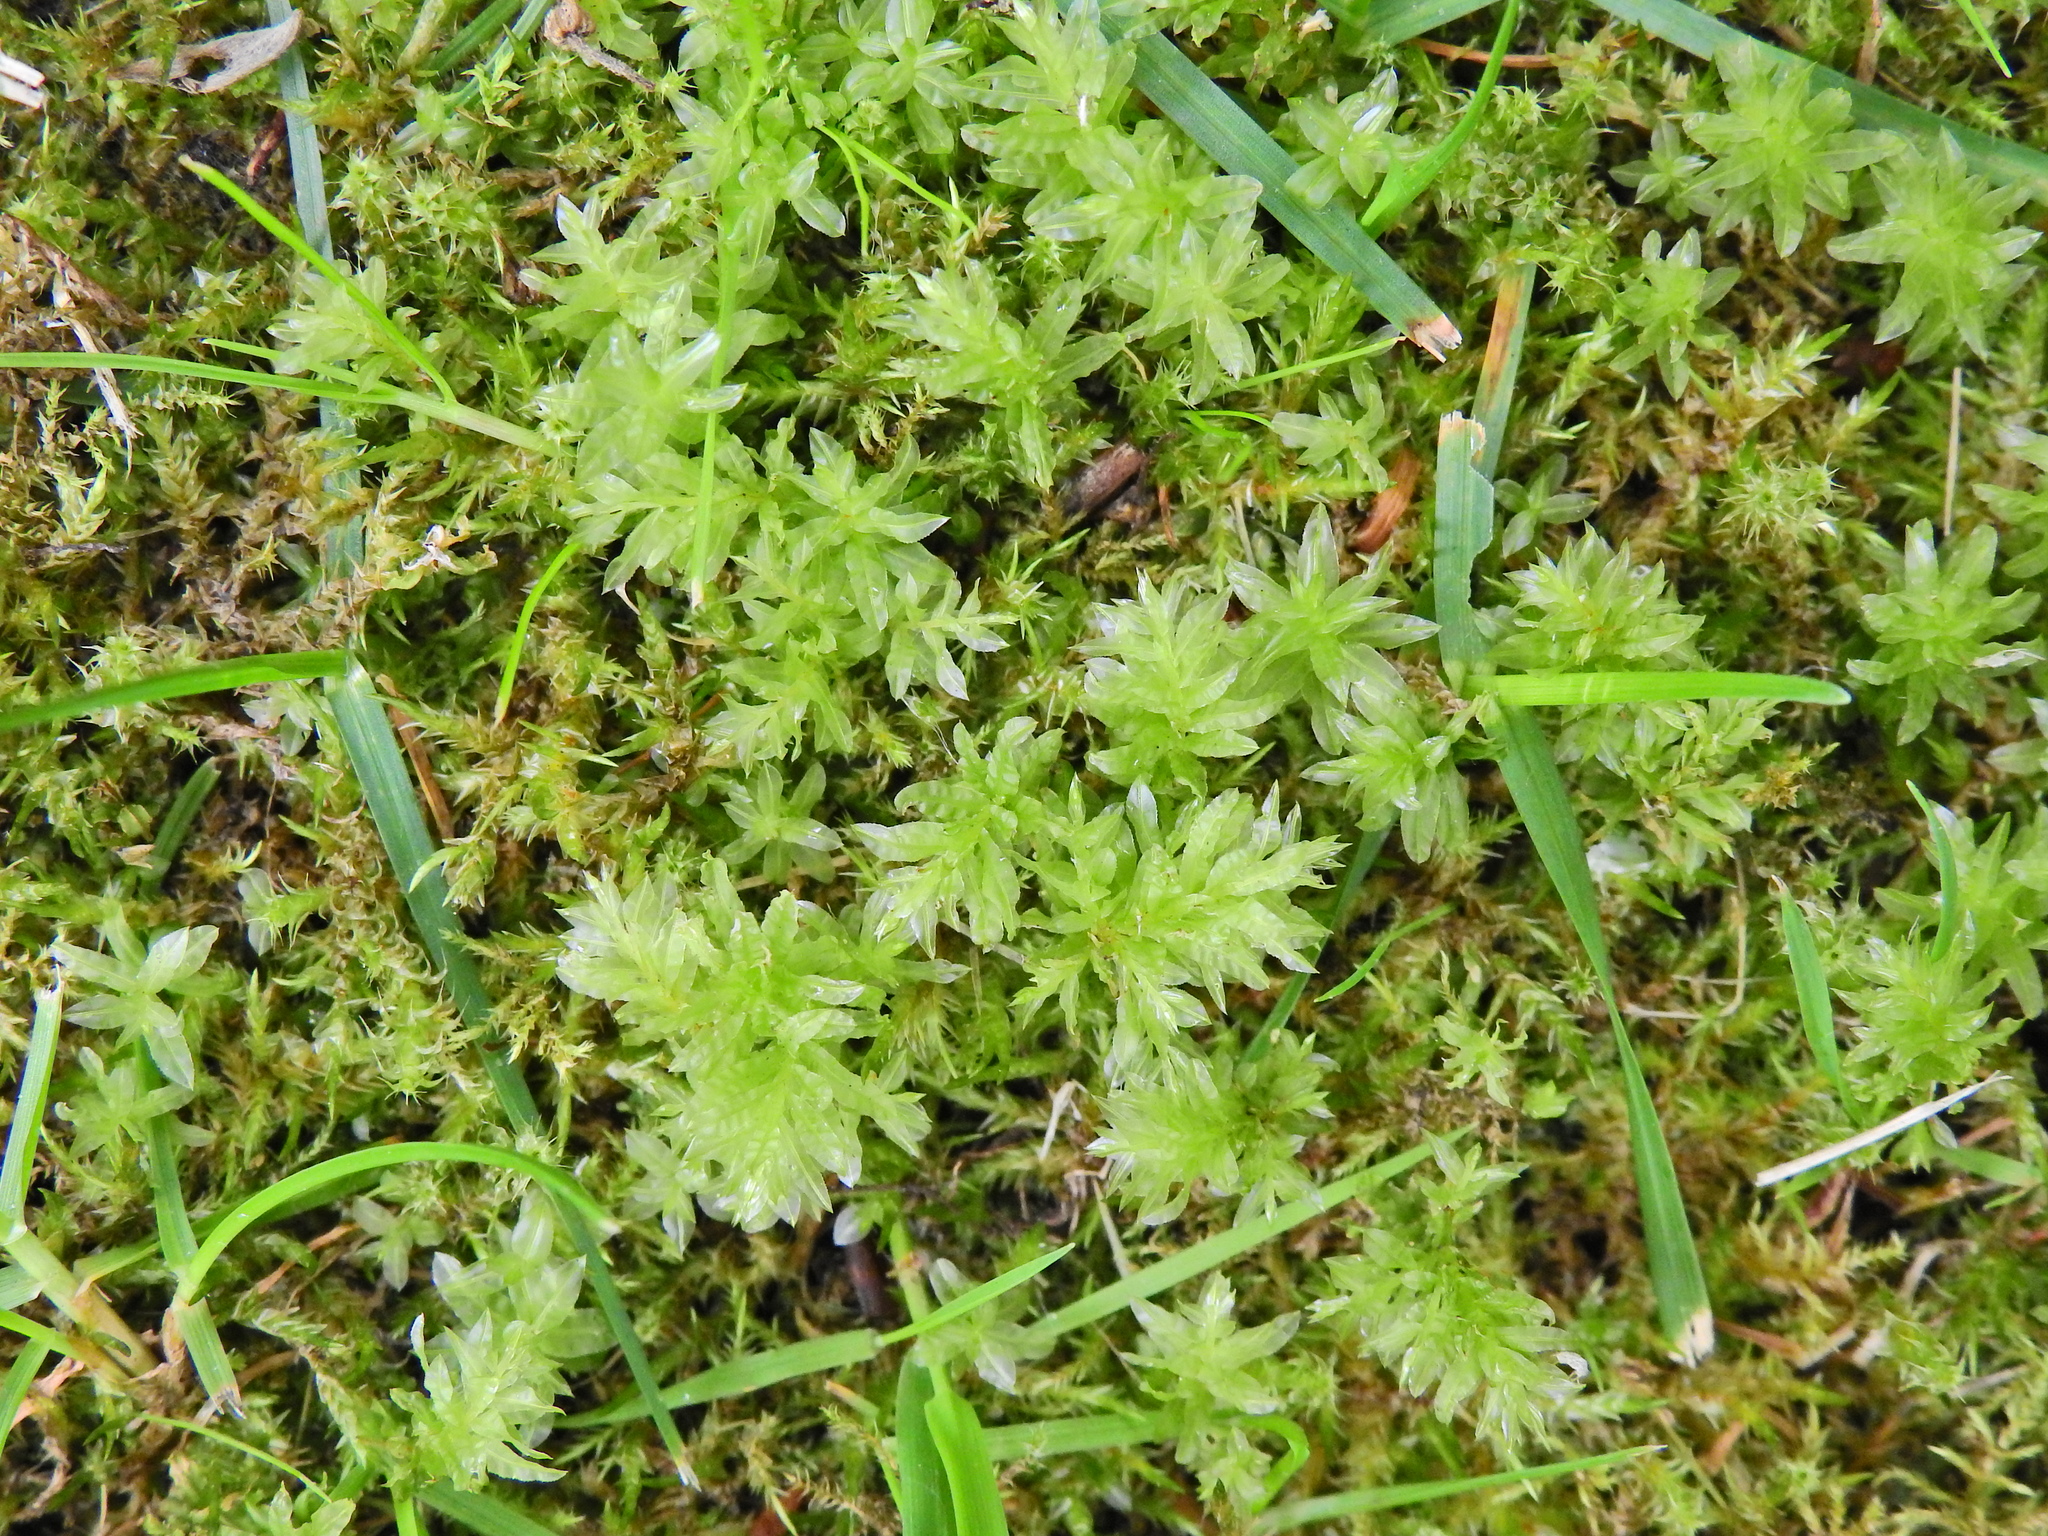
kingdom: Plantae
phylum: Bryophyta
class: Bryopsida
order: Bryales
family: Mniaceae
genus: Plagiomnium
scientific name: Plagiomnium undulatum
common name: Hart's-tongue thyme-moss
